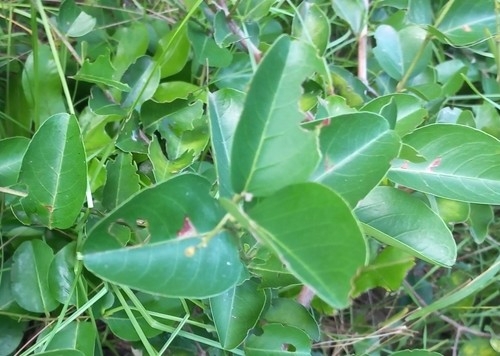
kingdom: Plantae
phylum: Tracheophyta
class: Magnoliopsida
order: Rosales
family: Rhamnaceae
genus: Scutia
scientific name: Scutia myrtina
